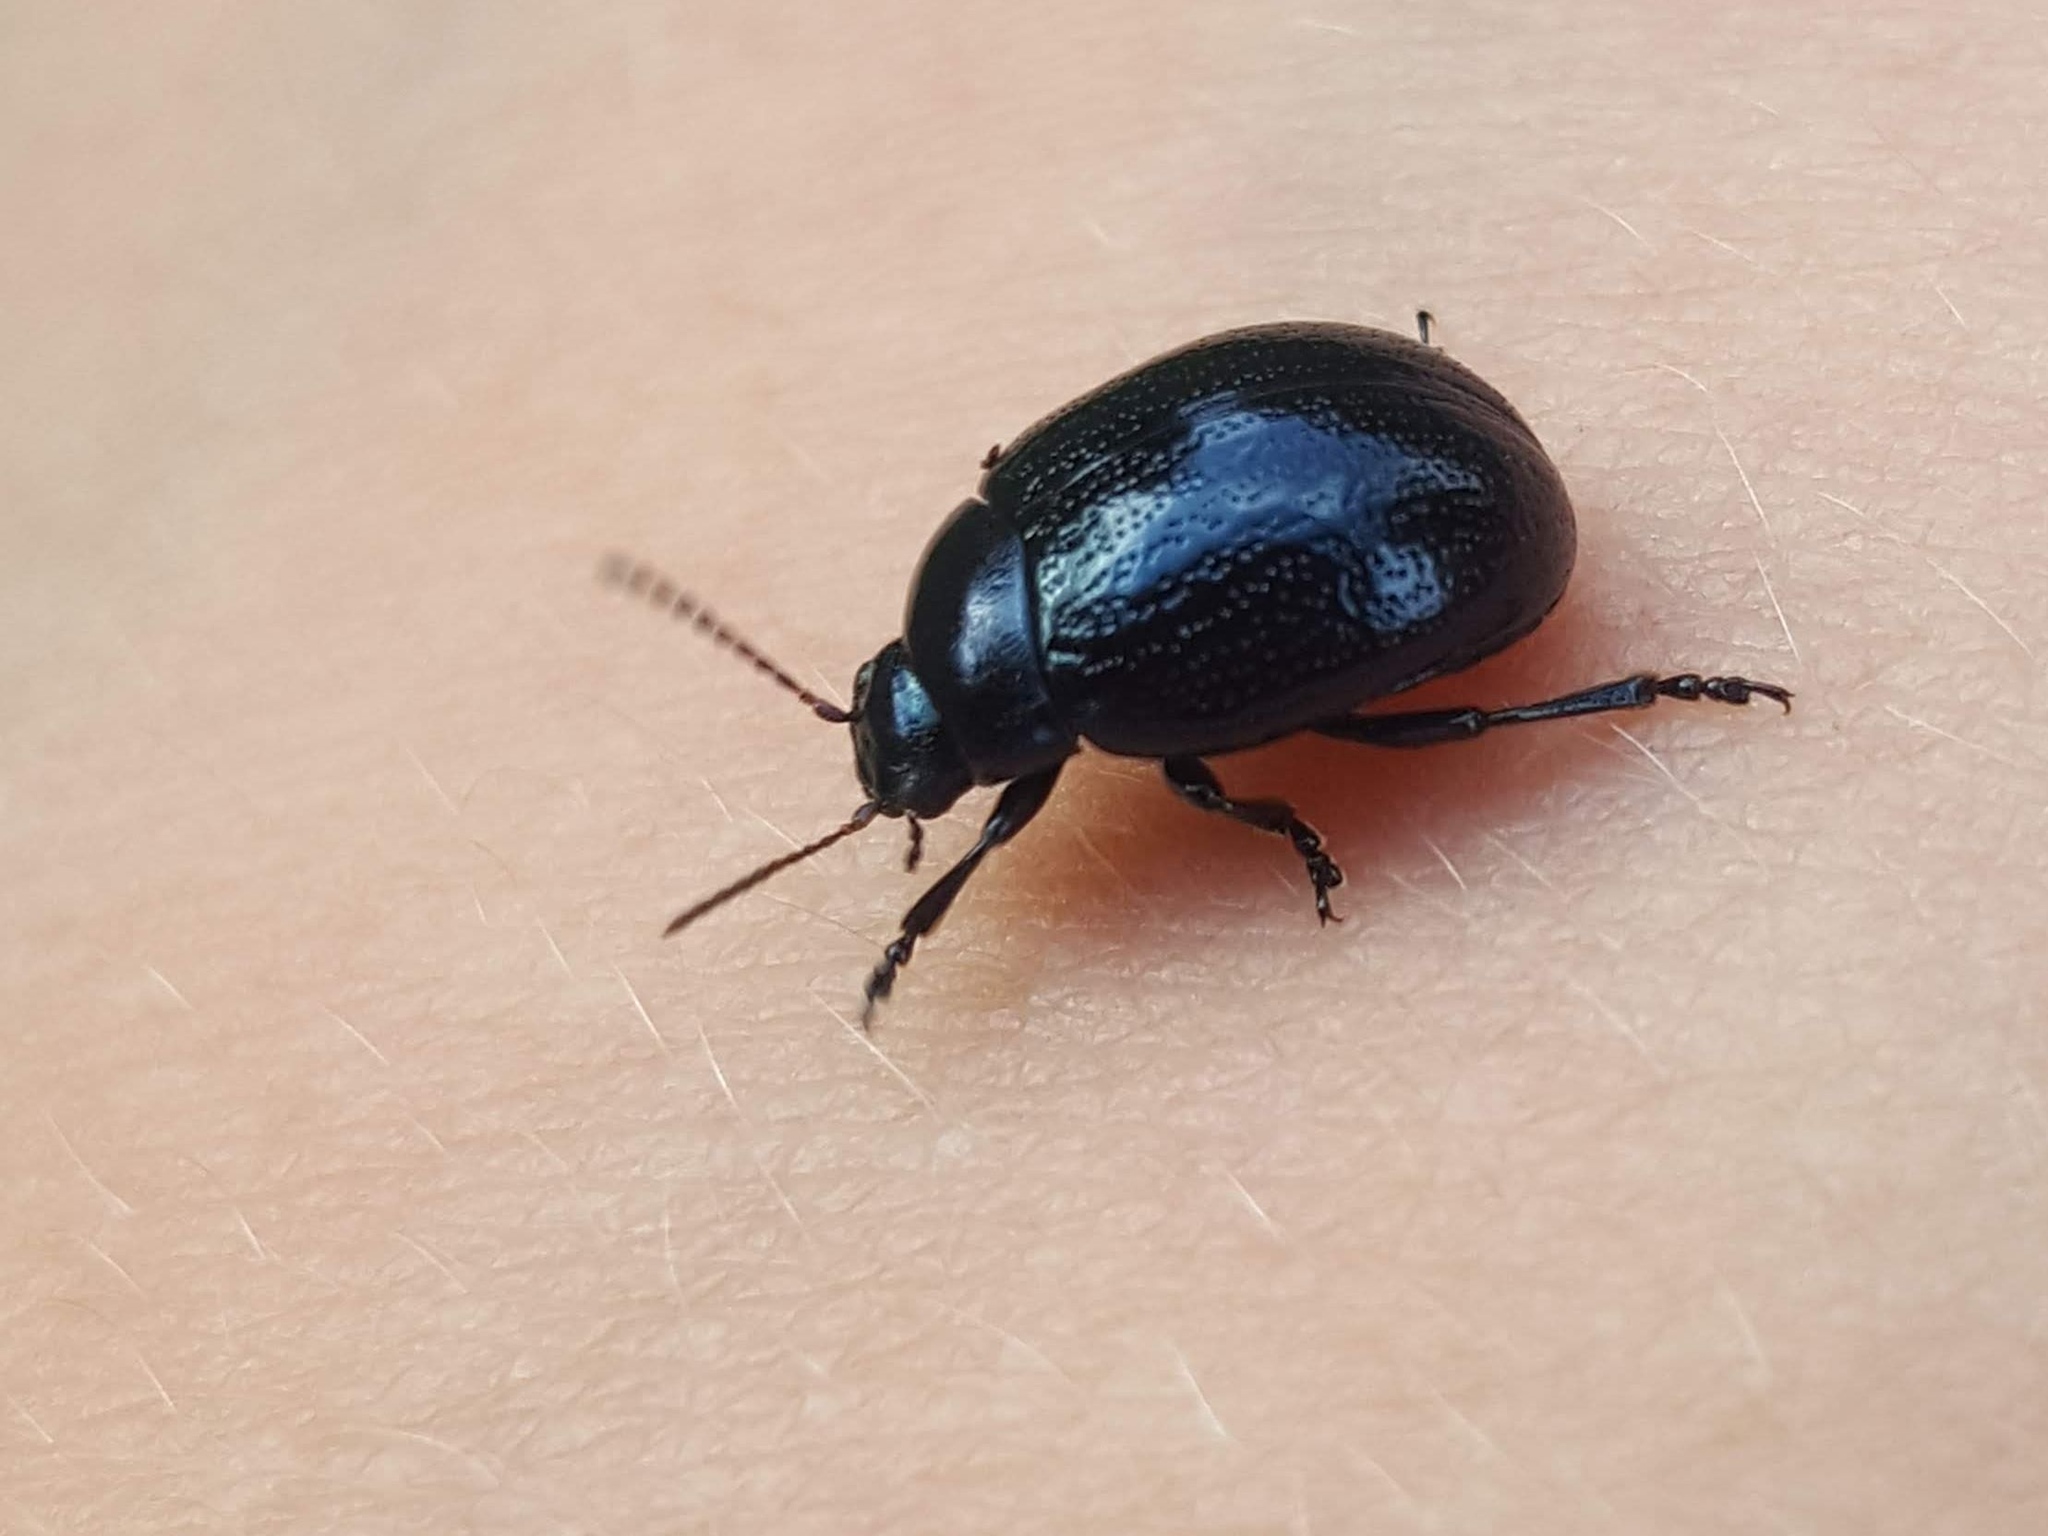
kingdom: Animalia
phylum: Arthropoda
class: Insecta
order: Coleoptera
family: Chrysomelidae
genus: Chrysolina
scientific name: Chrysolina haemoptera
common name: Plantain leaf beetle
